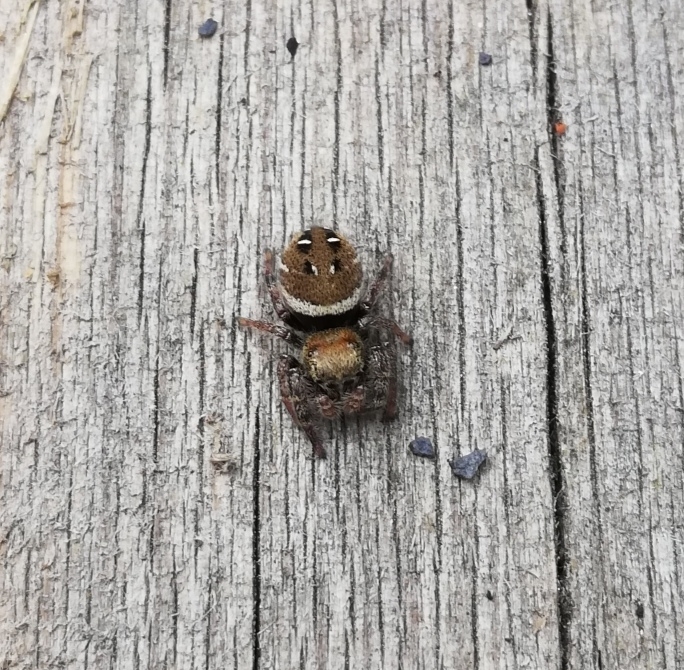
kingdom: Animalia
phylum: Arthropoda
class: Arachnida
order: Araneae
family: Salticidae
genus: Phidippus
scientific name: Phidippus whitmani
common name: Whitman's jumping spider
